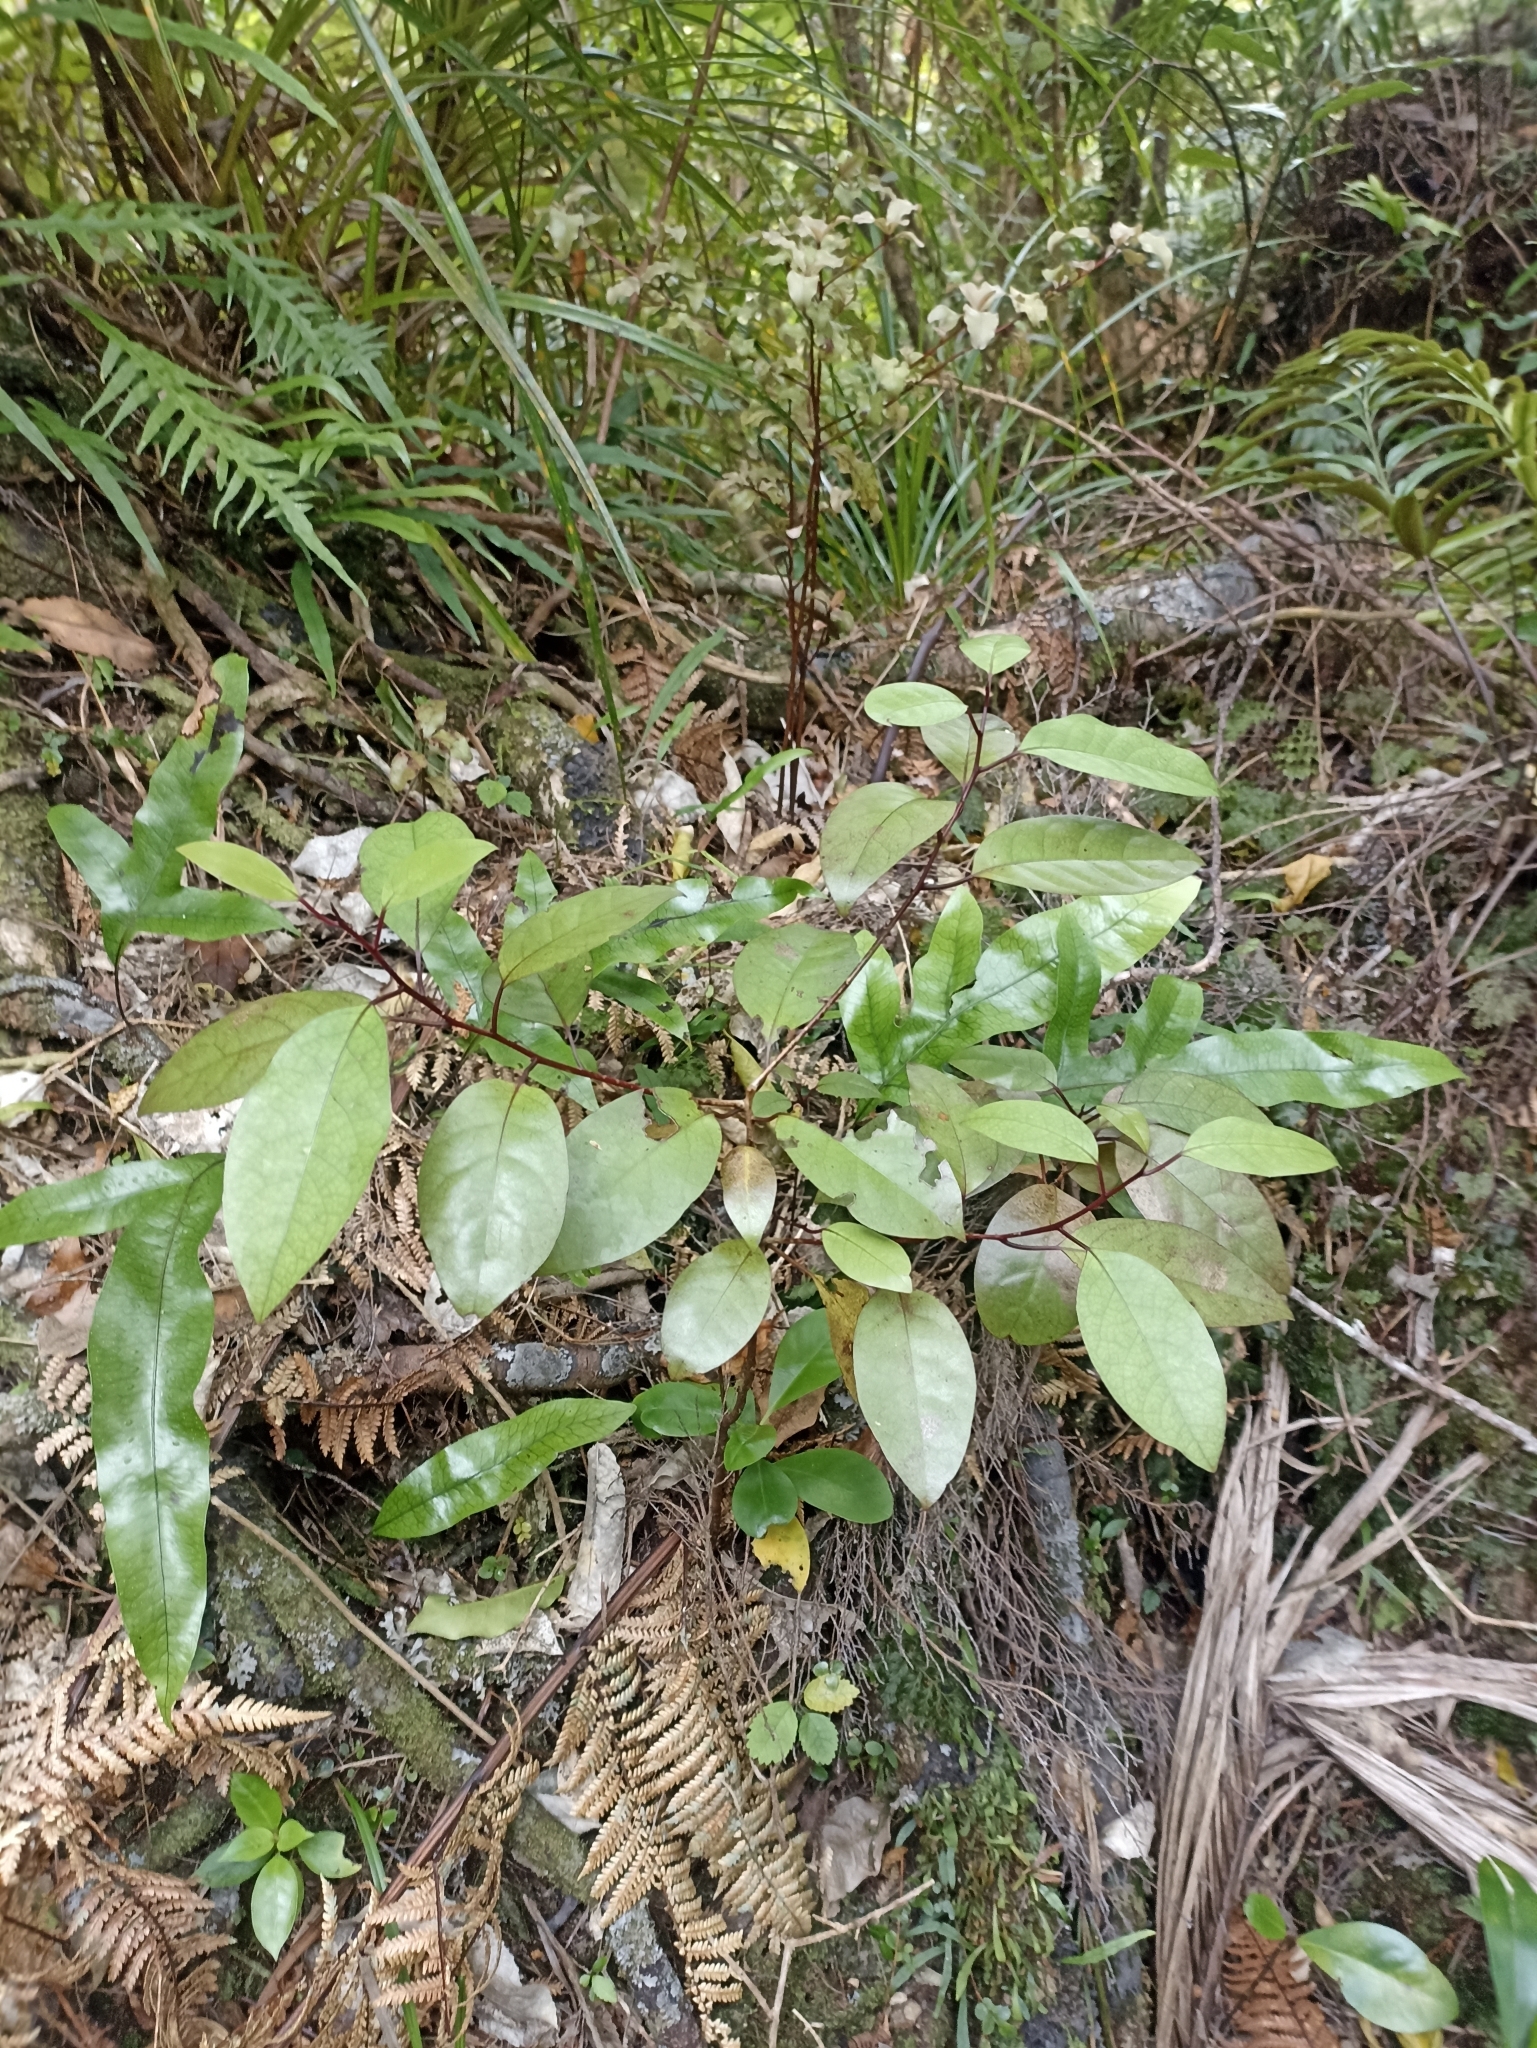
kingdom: Plantae
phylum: Tracheophyta
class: Magnoliopsida
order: Laurales
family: Lauraceae
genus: Litsea
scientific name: Litsea calicaris
